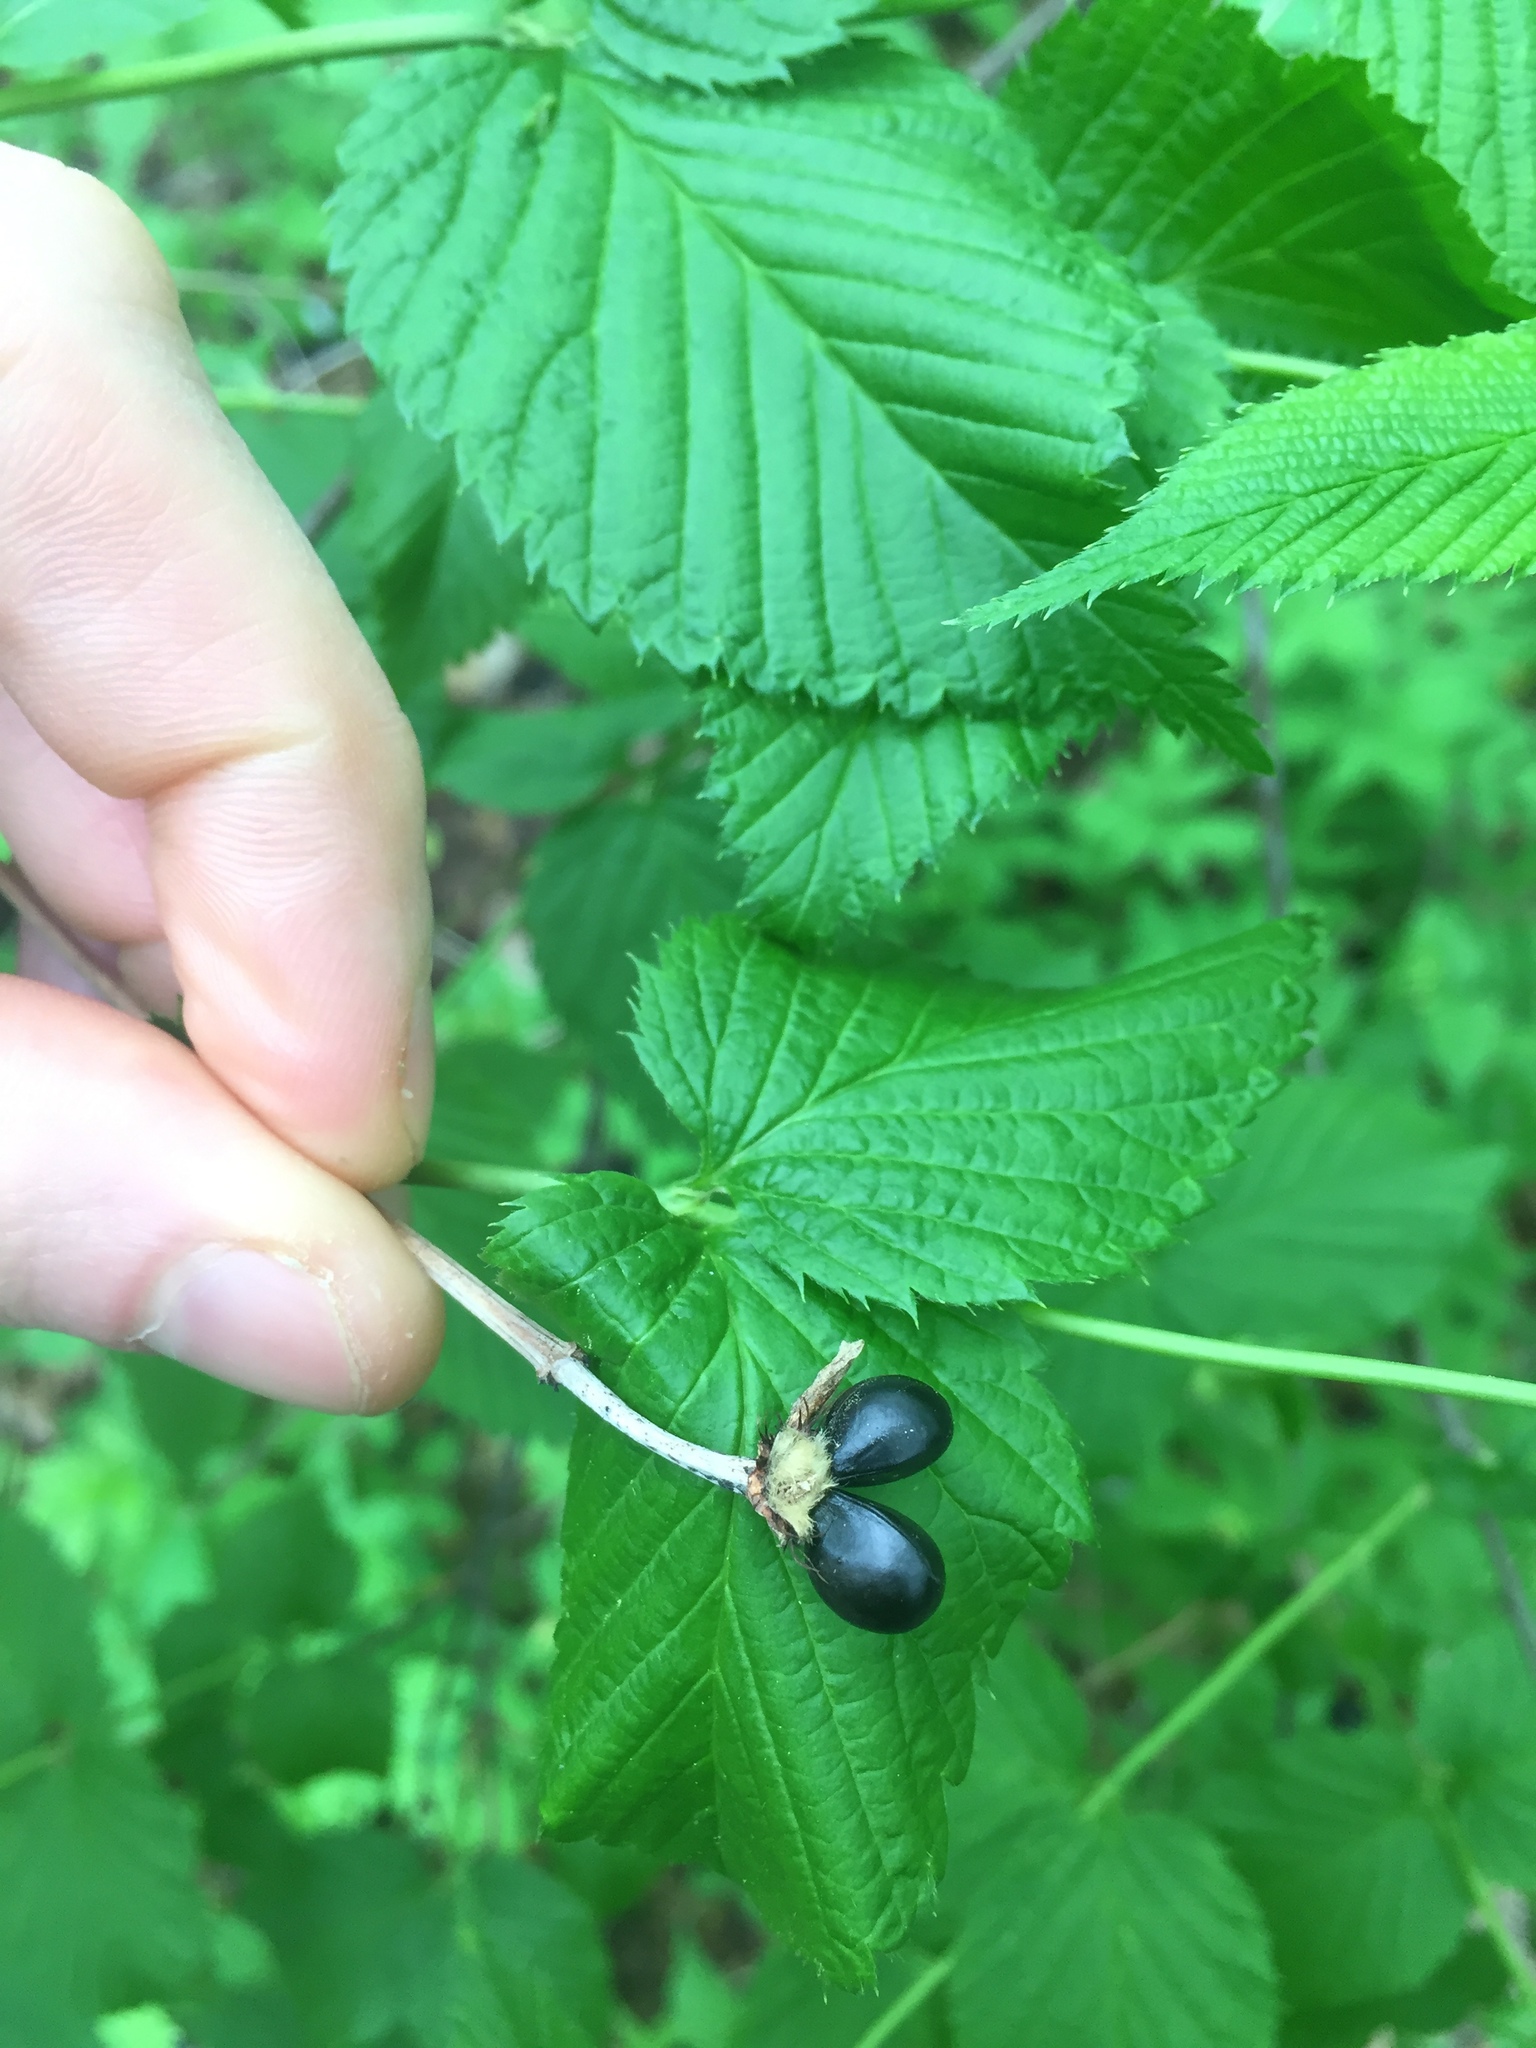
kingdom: Plantae
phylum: Tracheophyta
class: Magnoliopsida
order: Rosales
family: Rosaceae
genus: Rhodotypos
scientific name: Rhodotypos scandens
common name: Jetbead
